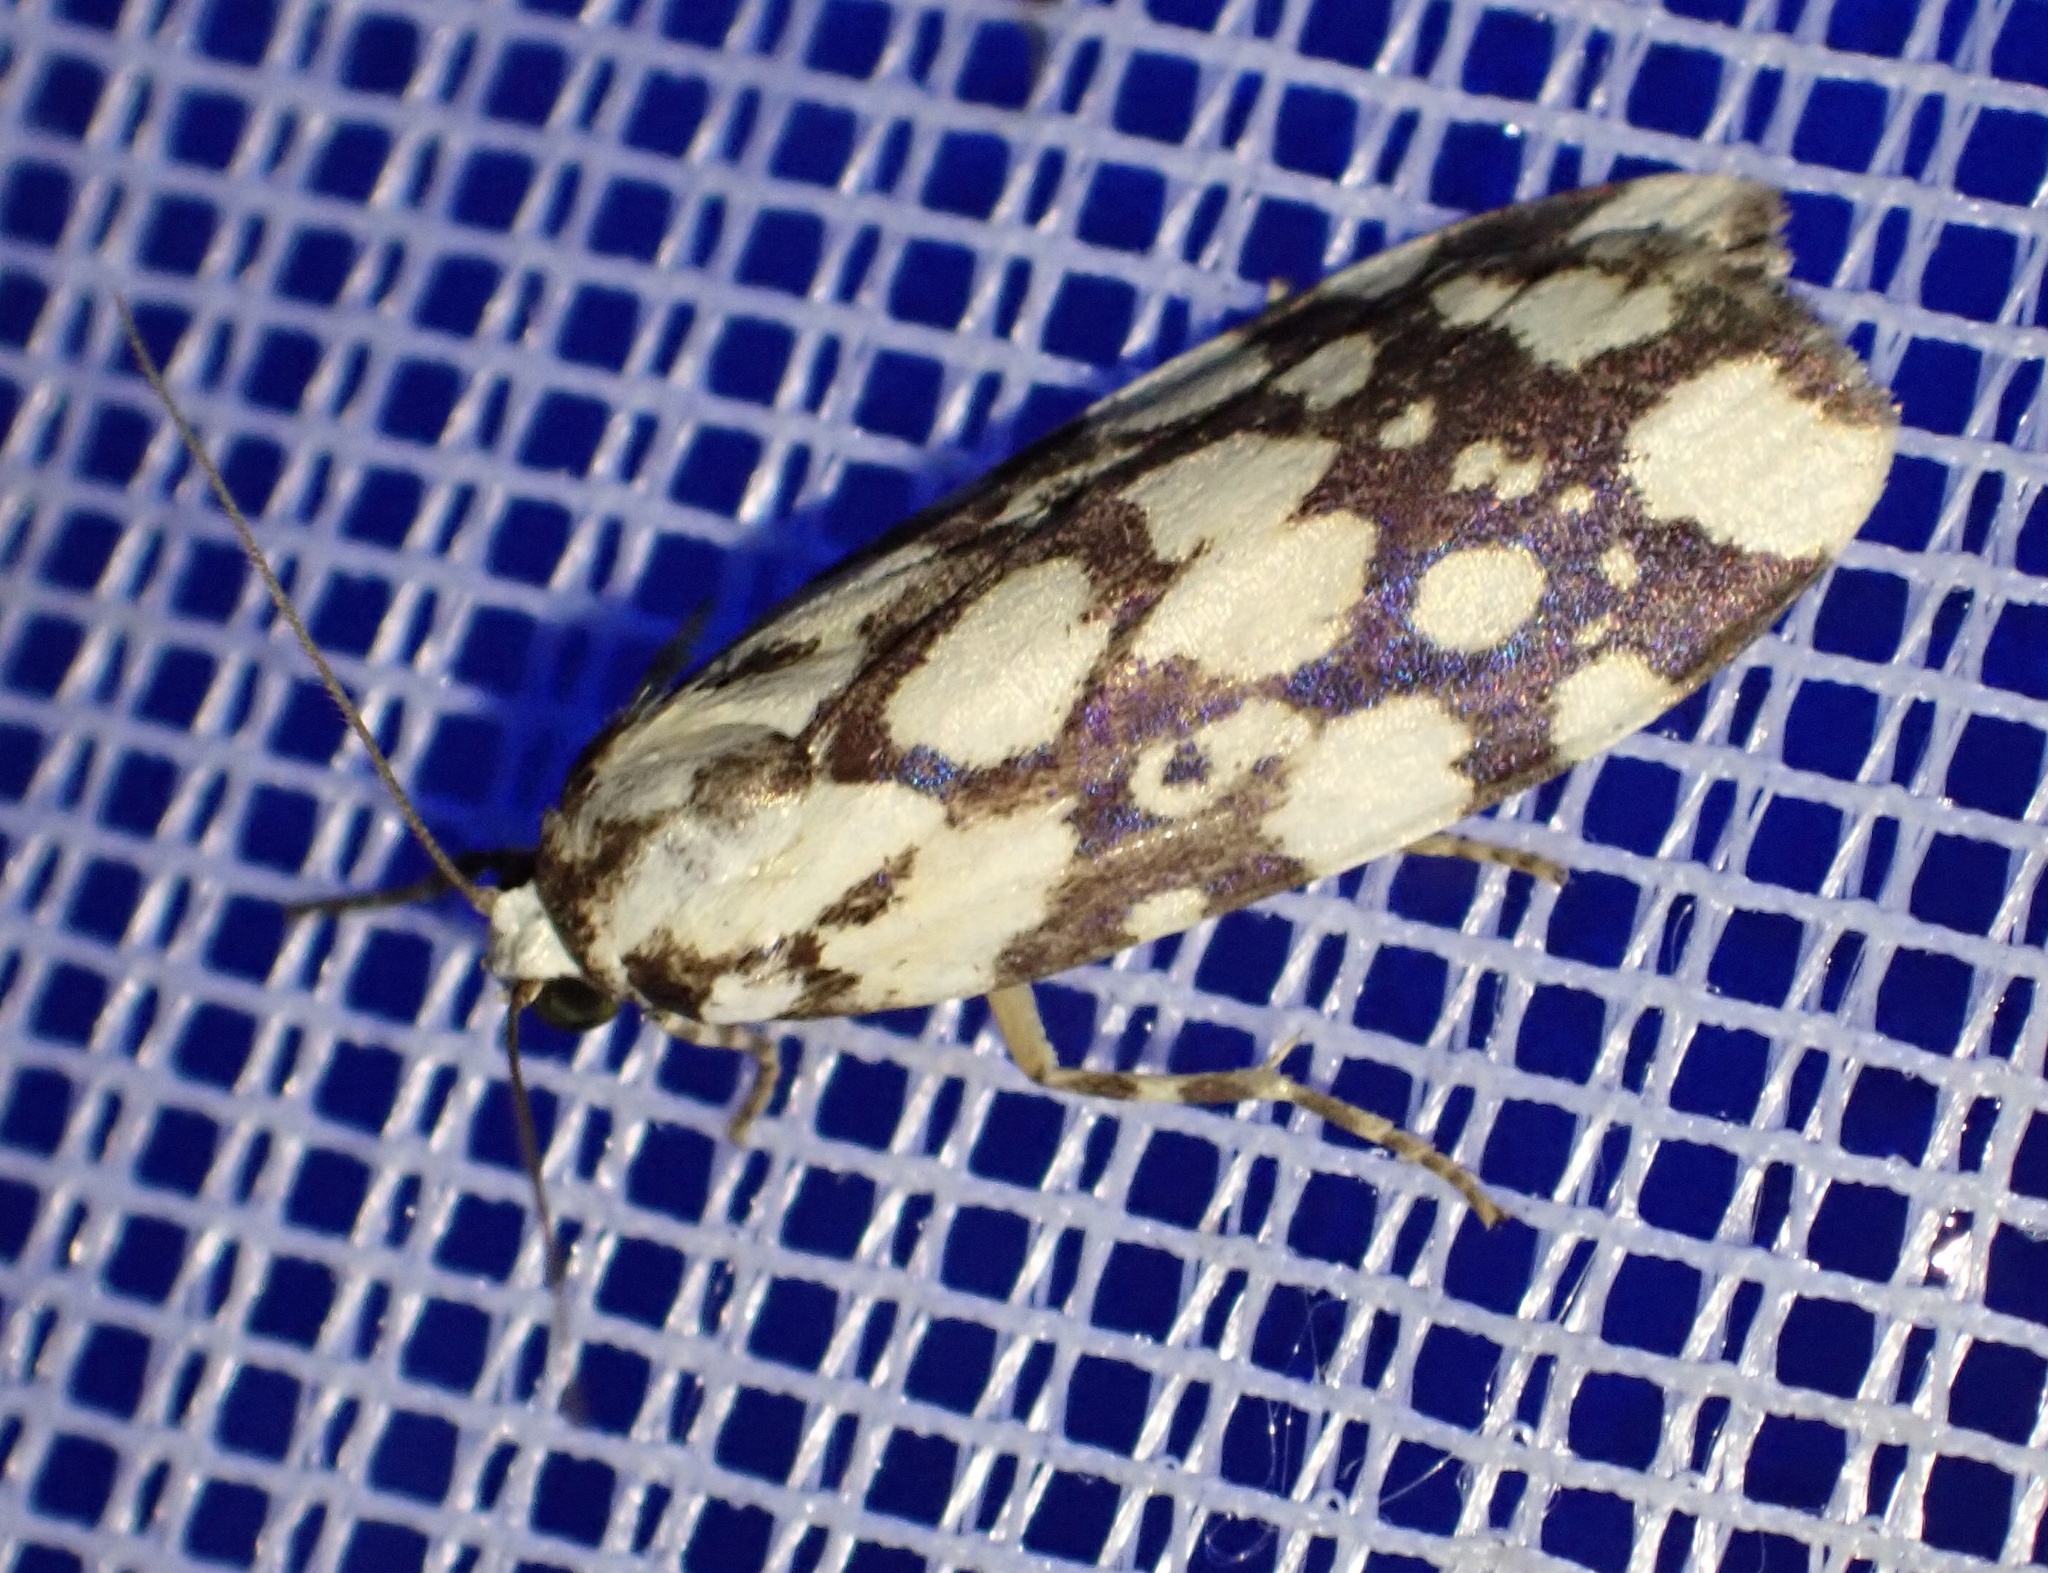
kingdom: Animalia
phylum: Arthropoda
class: Insecta
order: Lepidoptera
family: Erebidae
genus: Cyana
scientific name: Cyana nigroplagata
